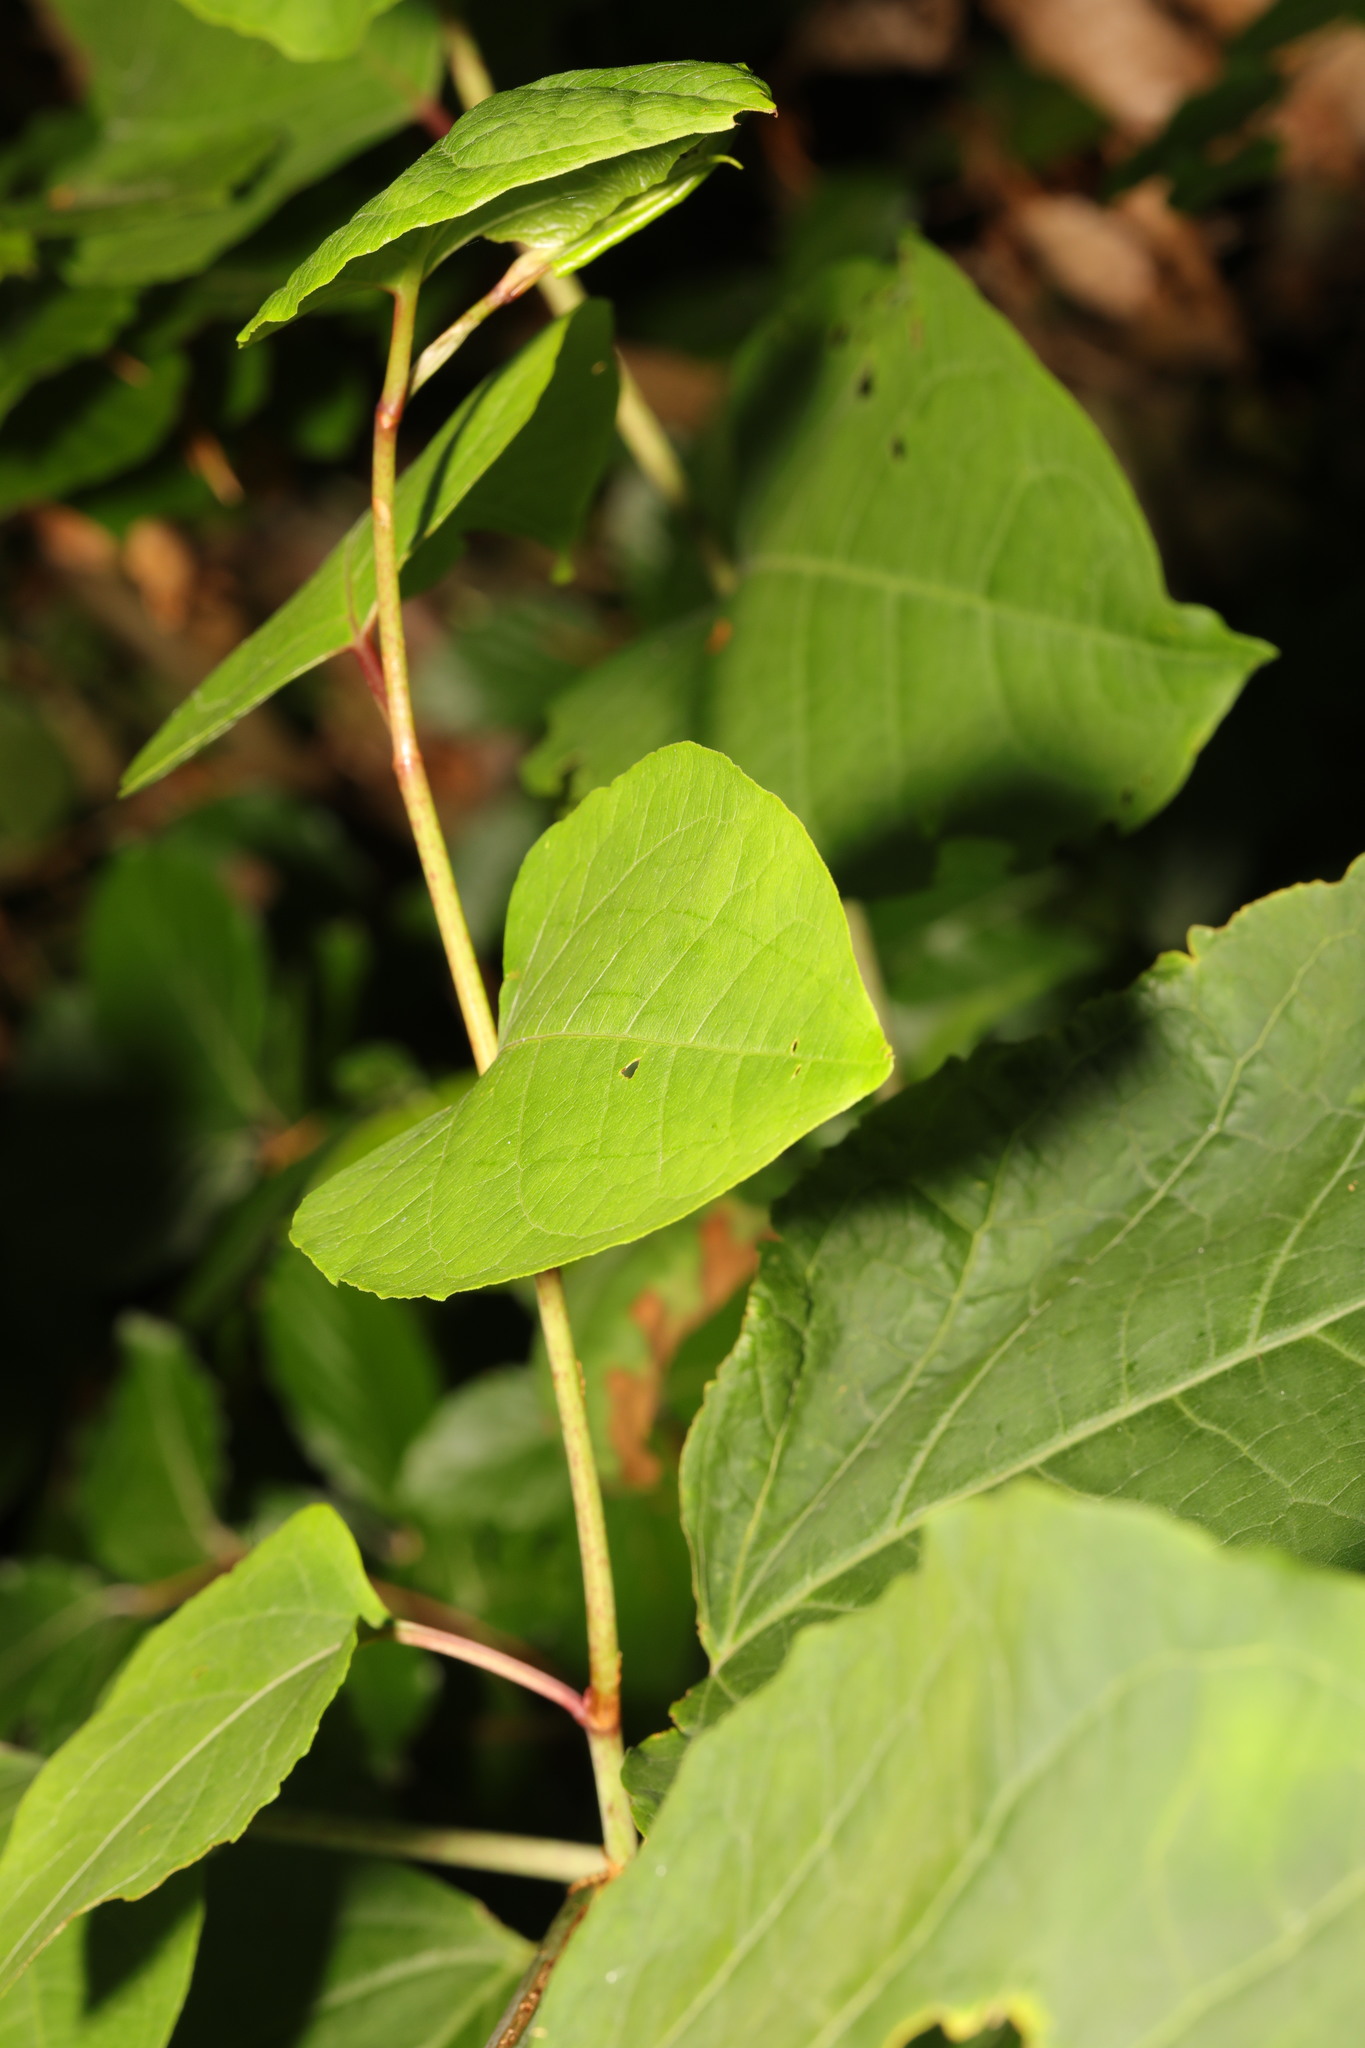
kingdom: Plantae
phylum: Tracheophyta
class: Magnoliopsida
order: Caryophyllales
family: Polygonaceae
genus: Reynoutria
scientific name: Reynoutria japonica
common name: Japanese knotweed
